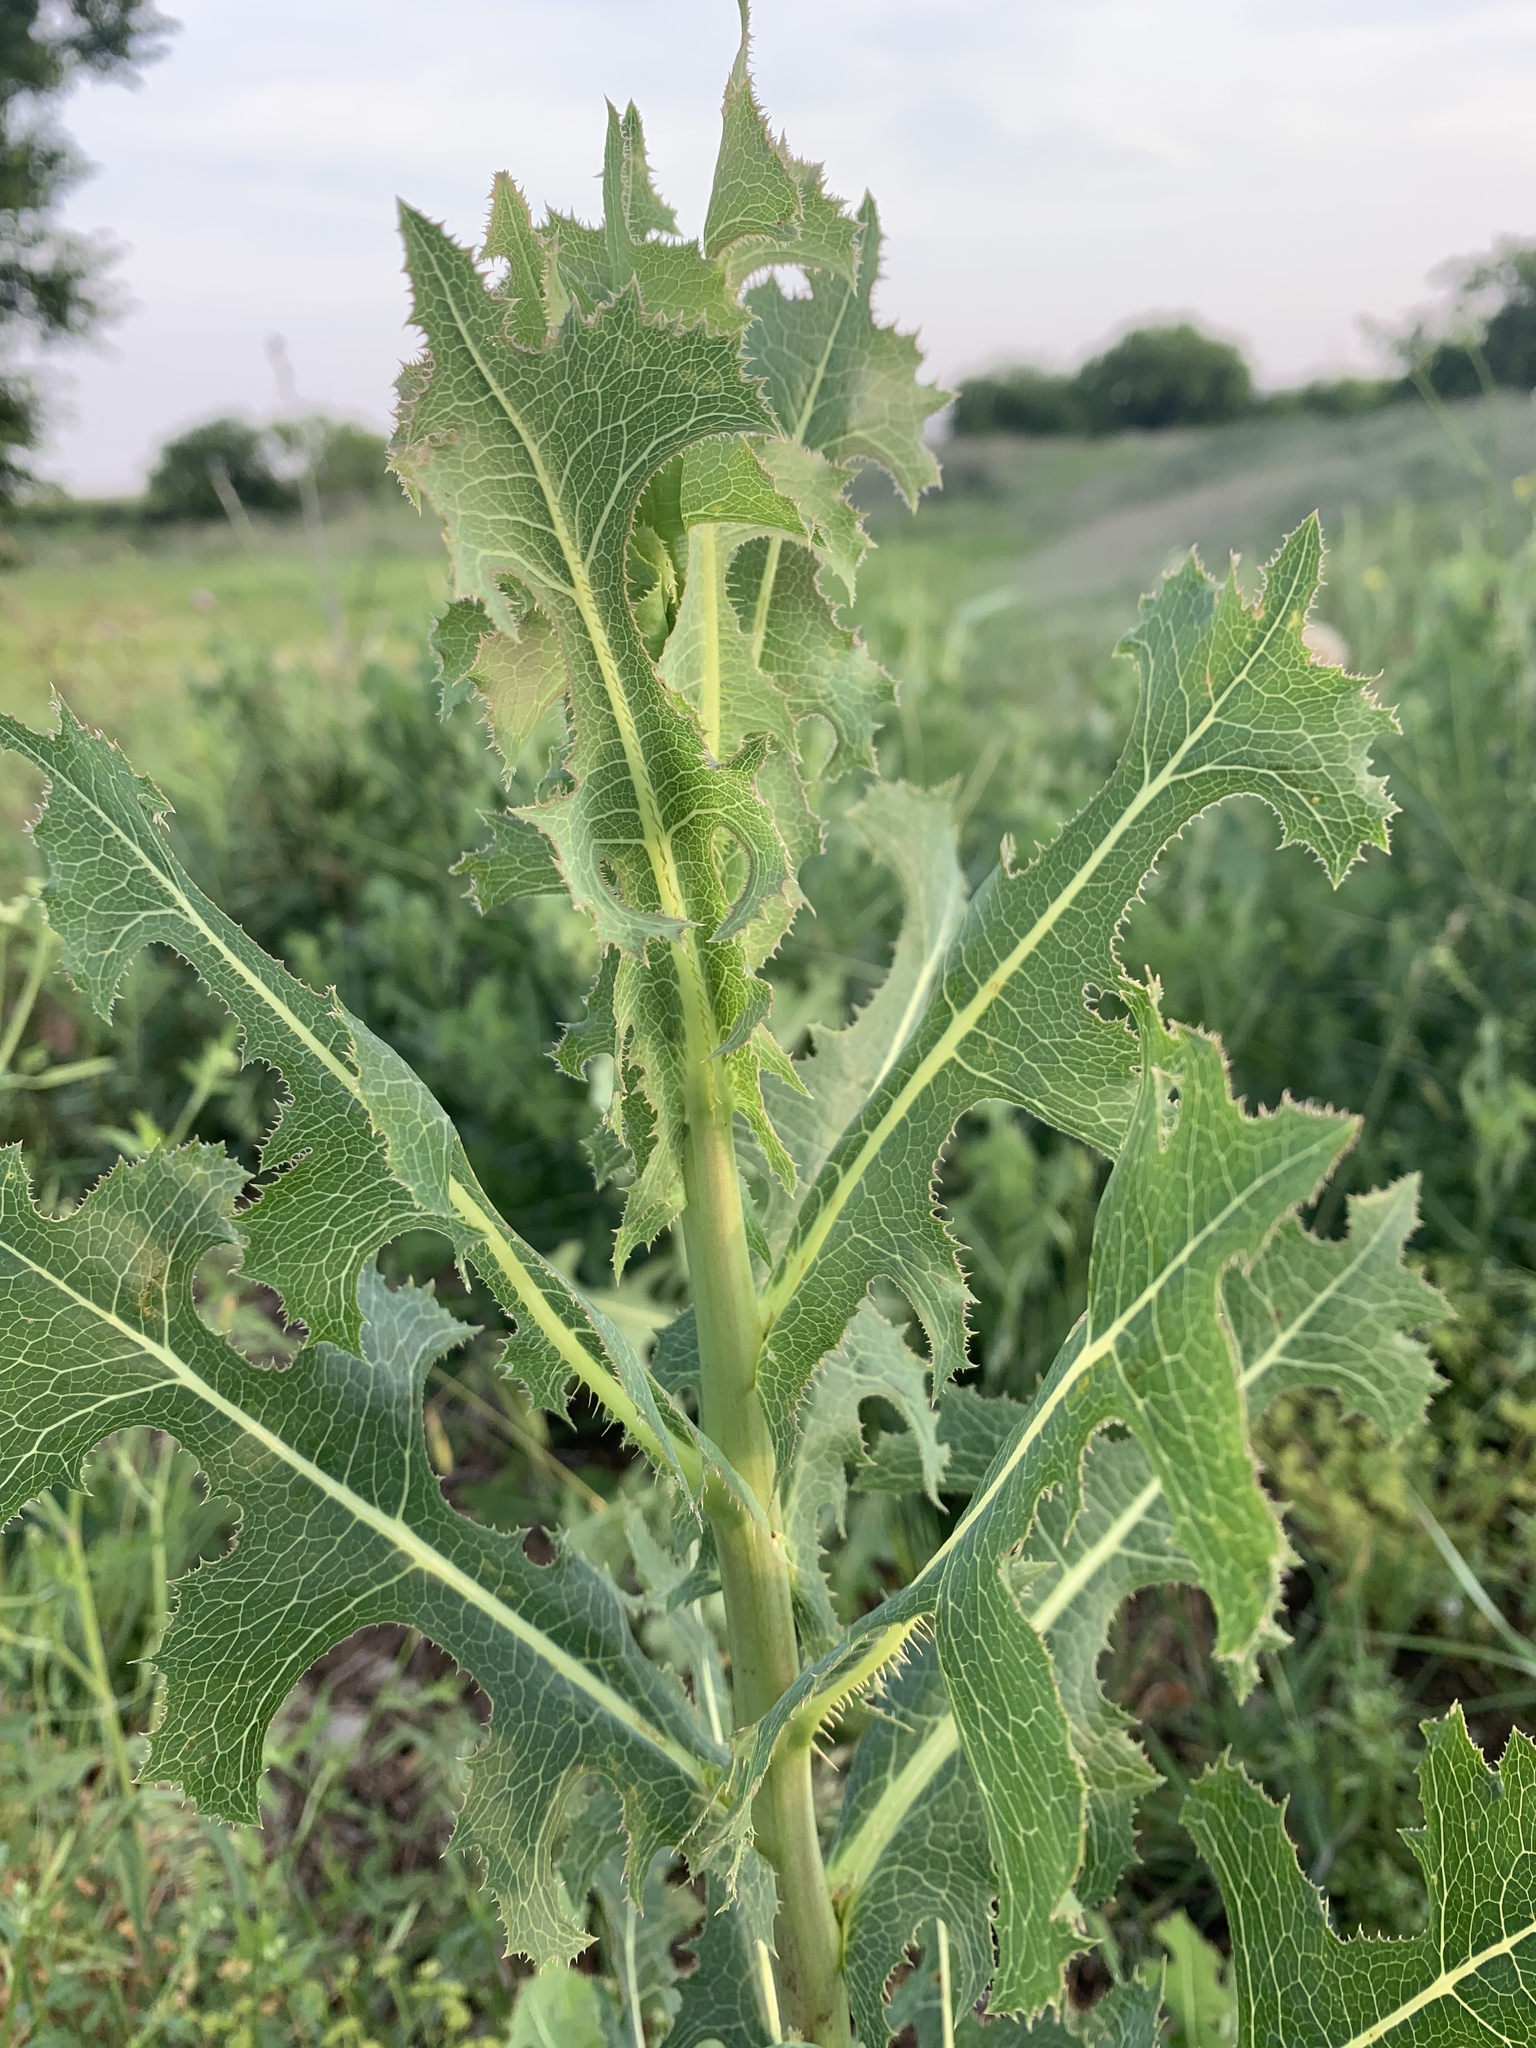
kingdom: Plantae
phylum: Tracheophyta
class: Magnoliopsida
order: Asterales
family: Asteraceae
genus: Lactuca
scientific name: Lactuca serriola
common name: Prickly lettuce
